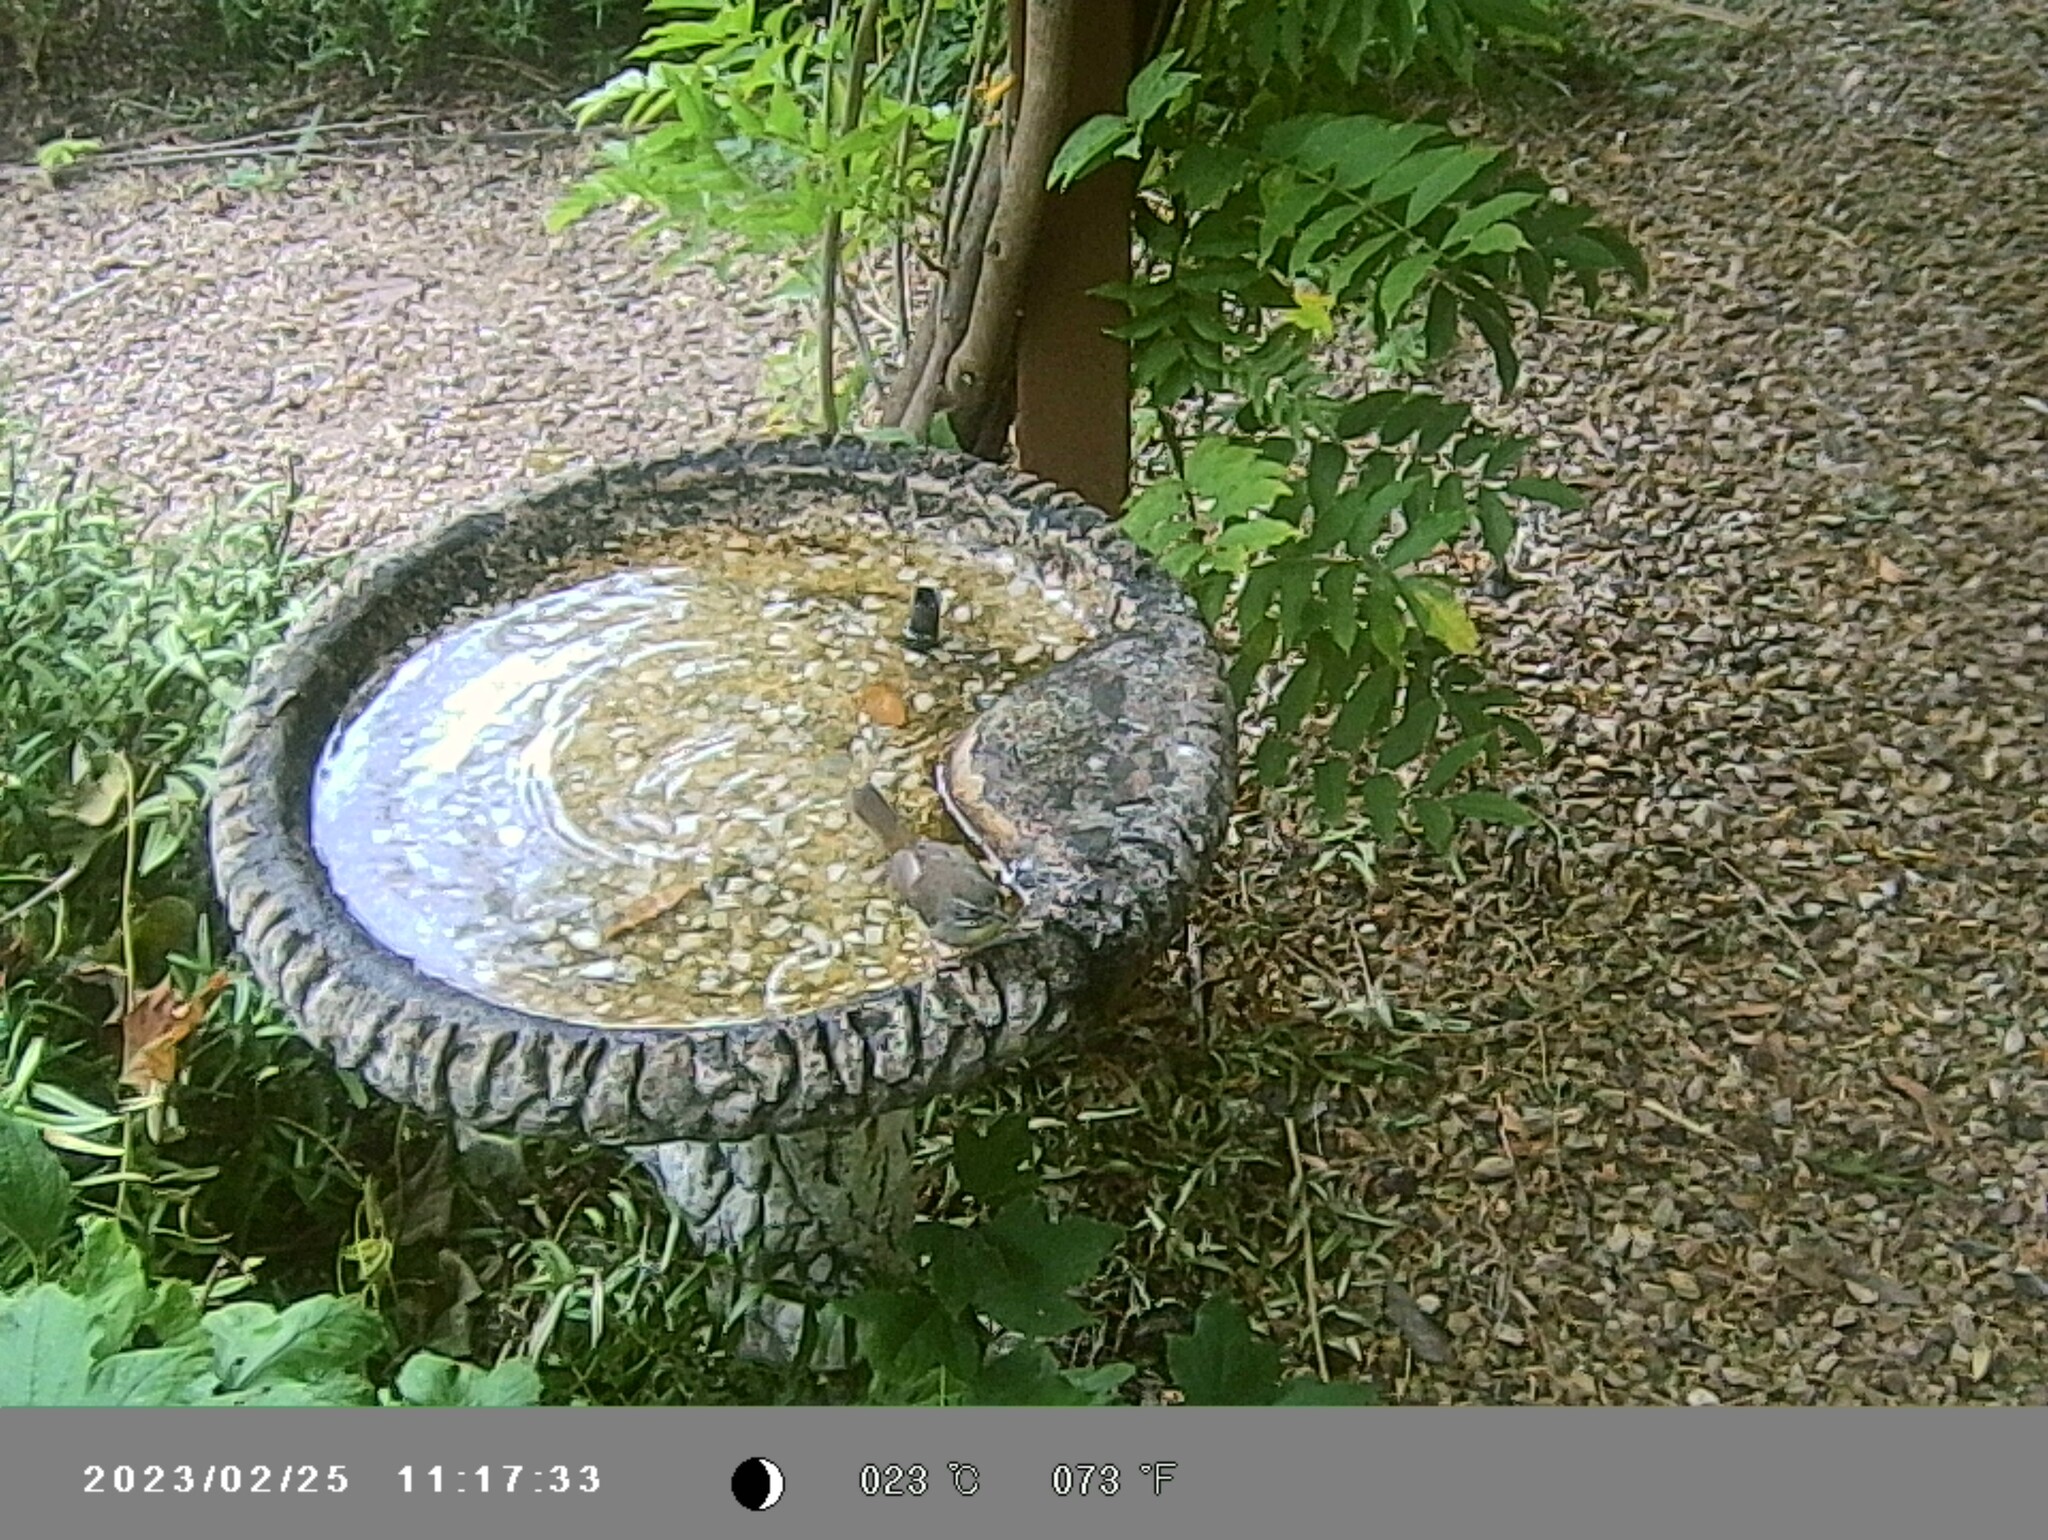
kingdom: Animalia
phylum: Chordata
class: Aves
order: Passeriformes
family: Acanthizidae
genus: Sericornis
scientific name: Sericornis frontalis
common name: White-browed scrubwren
